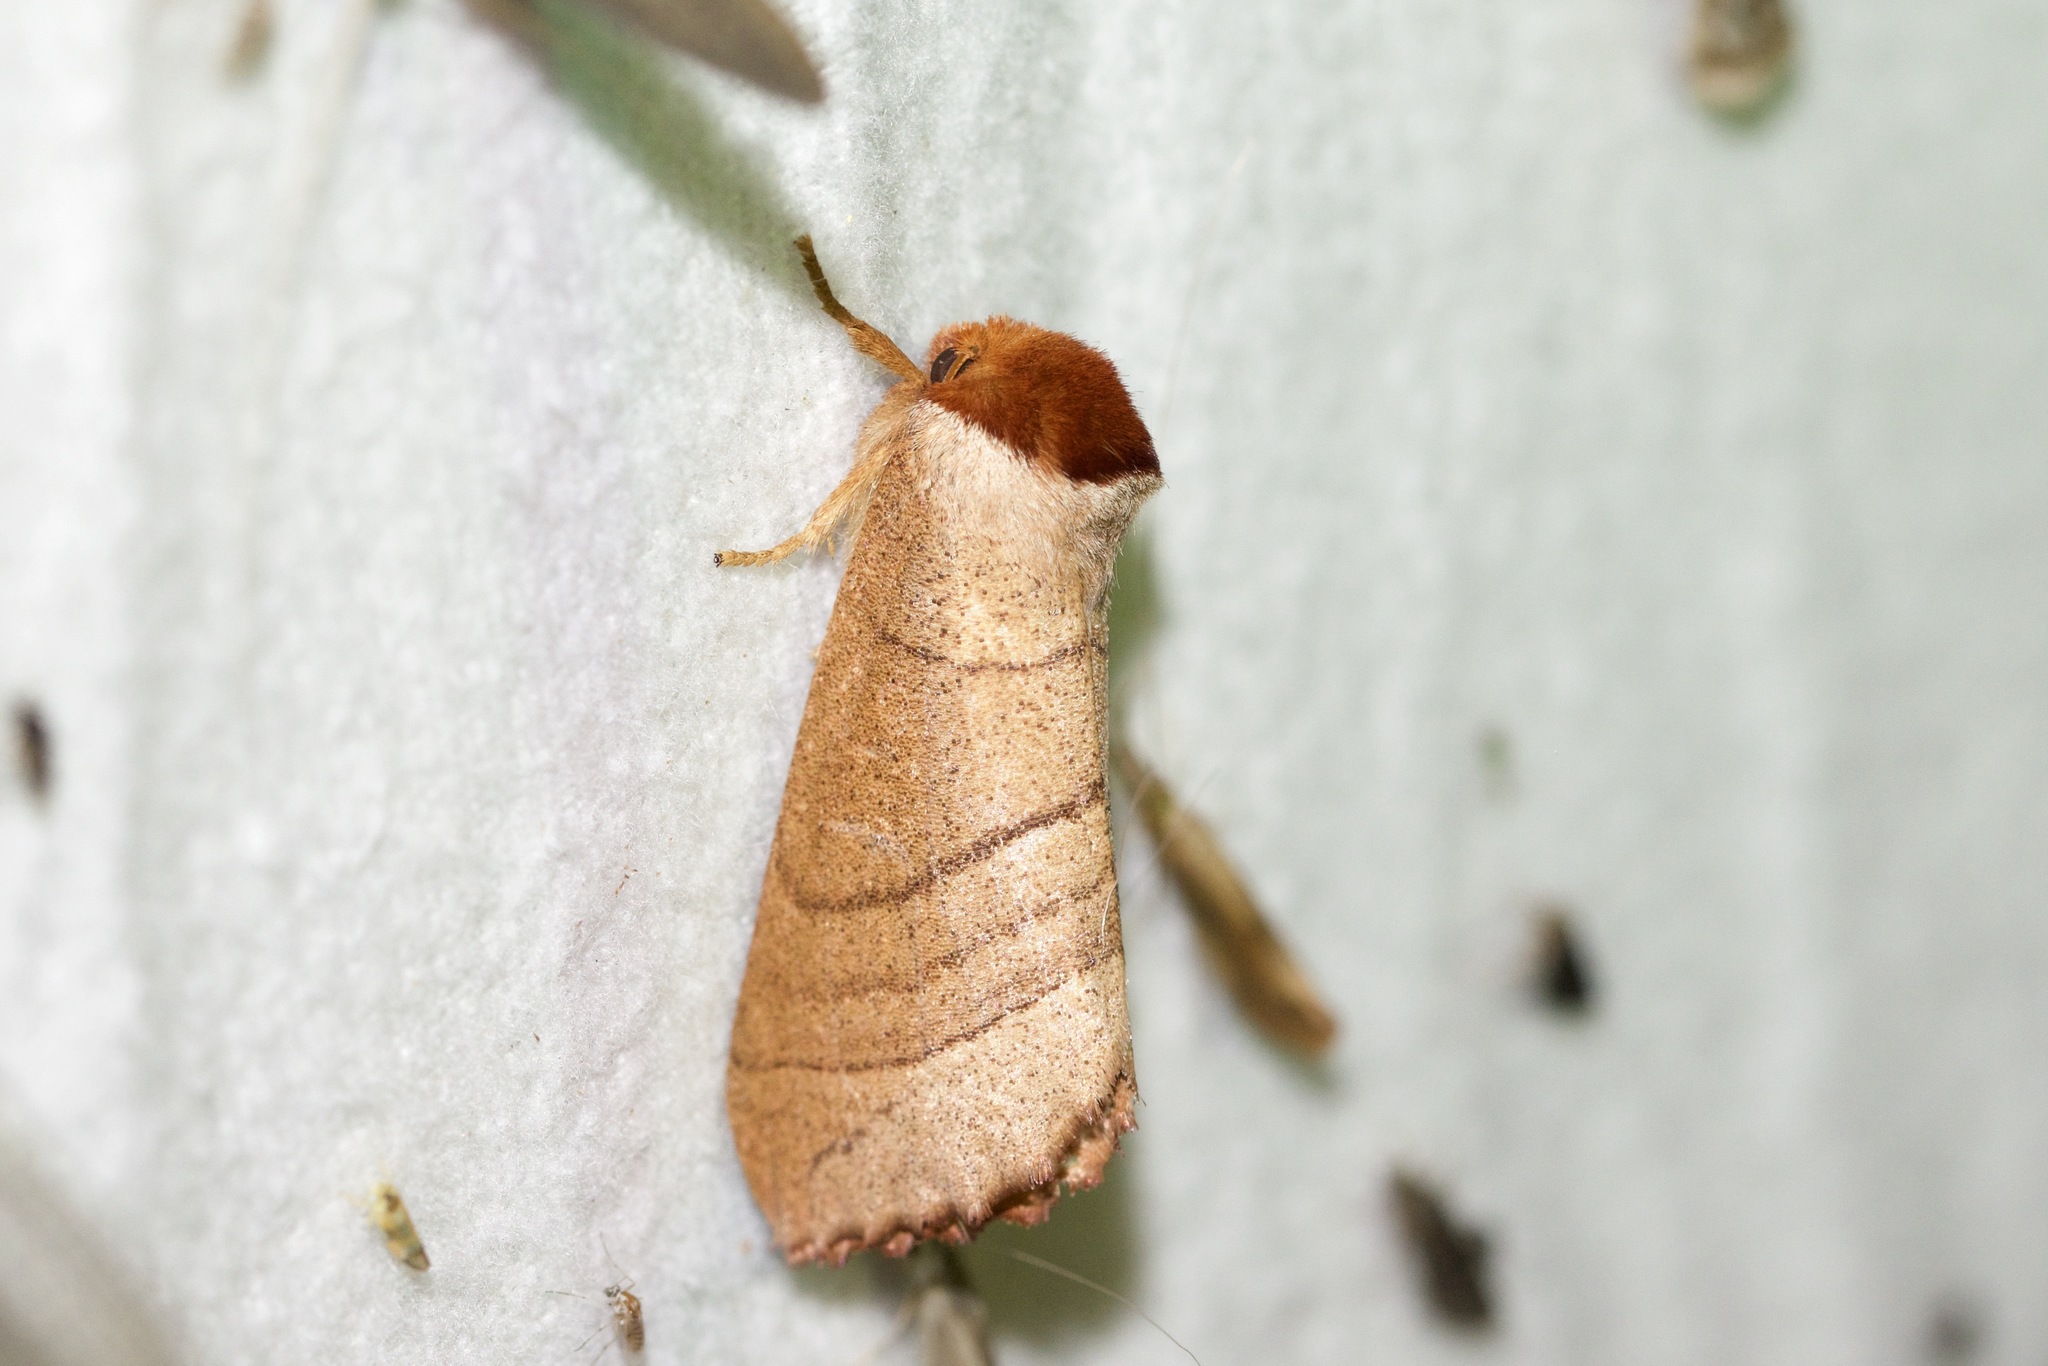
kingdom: Animalia
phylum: Arthropoda
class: Insecta
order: Lepidoptera
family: Notodontidae
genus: Datana
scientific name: Datana ministra
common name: Yellow-necked caterpillar moth
